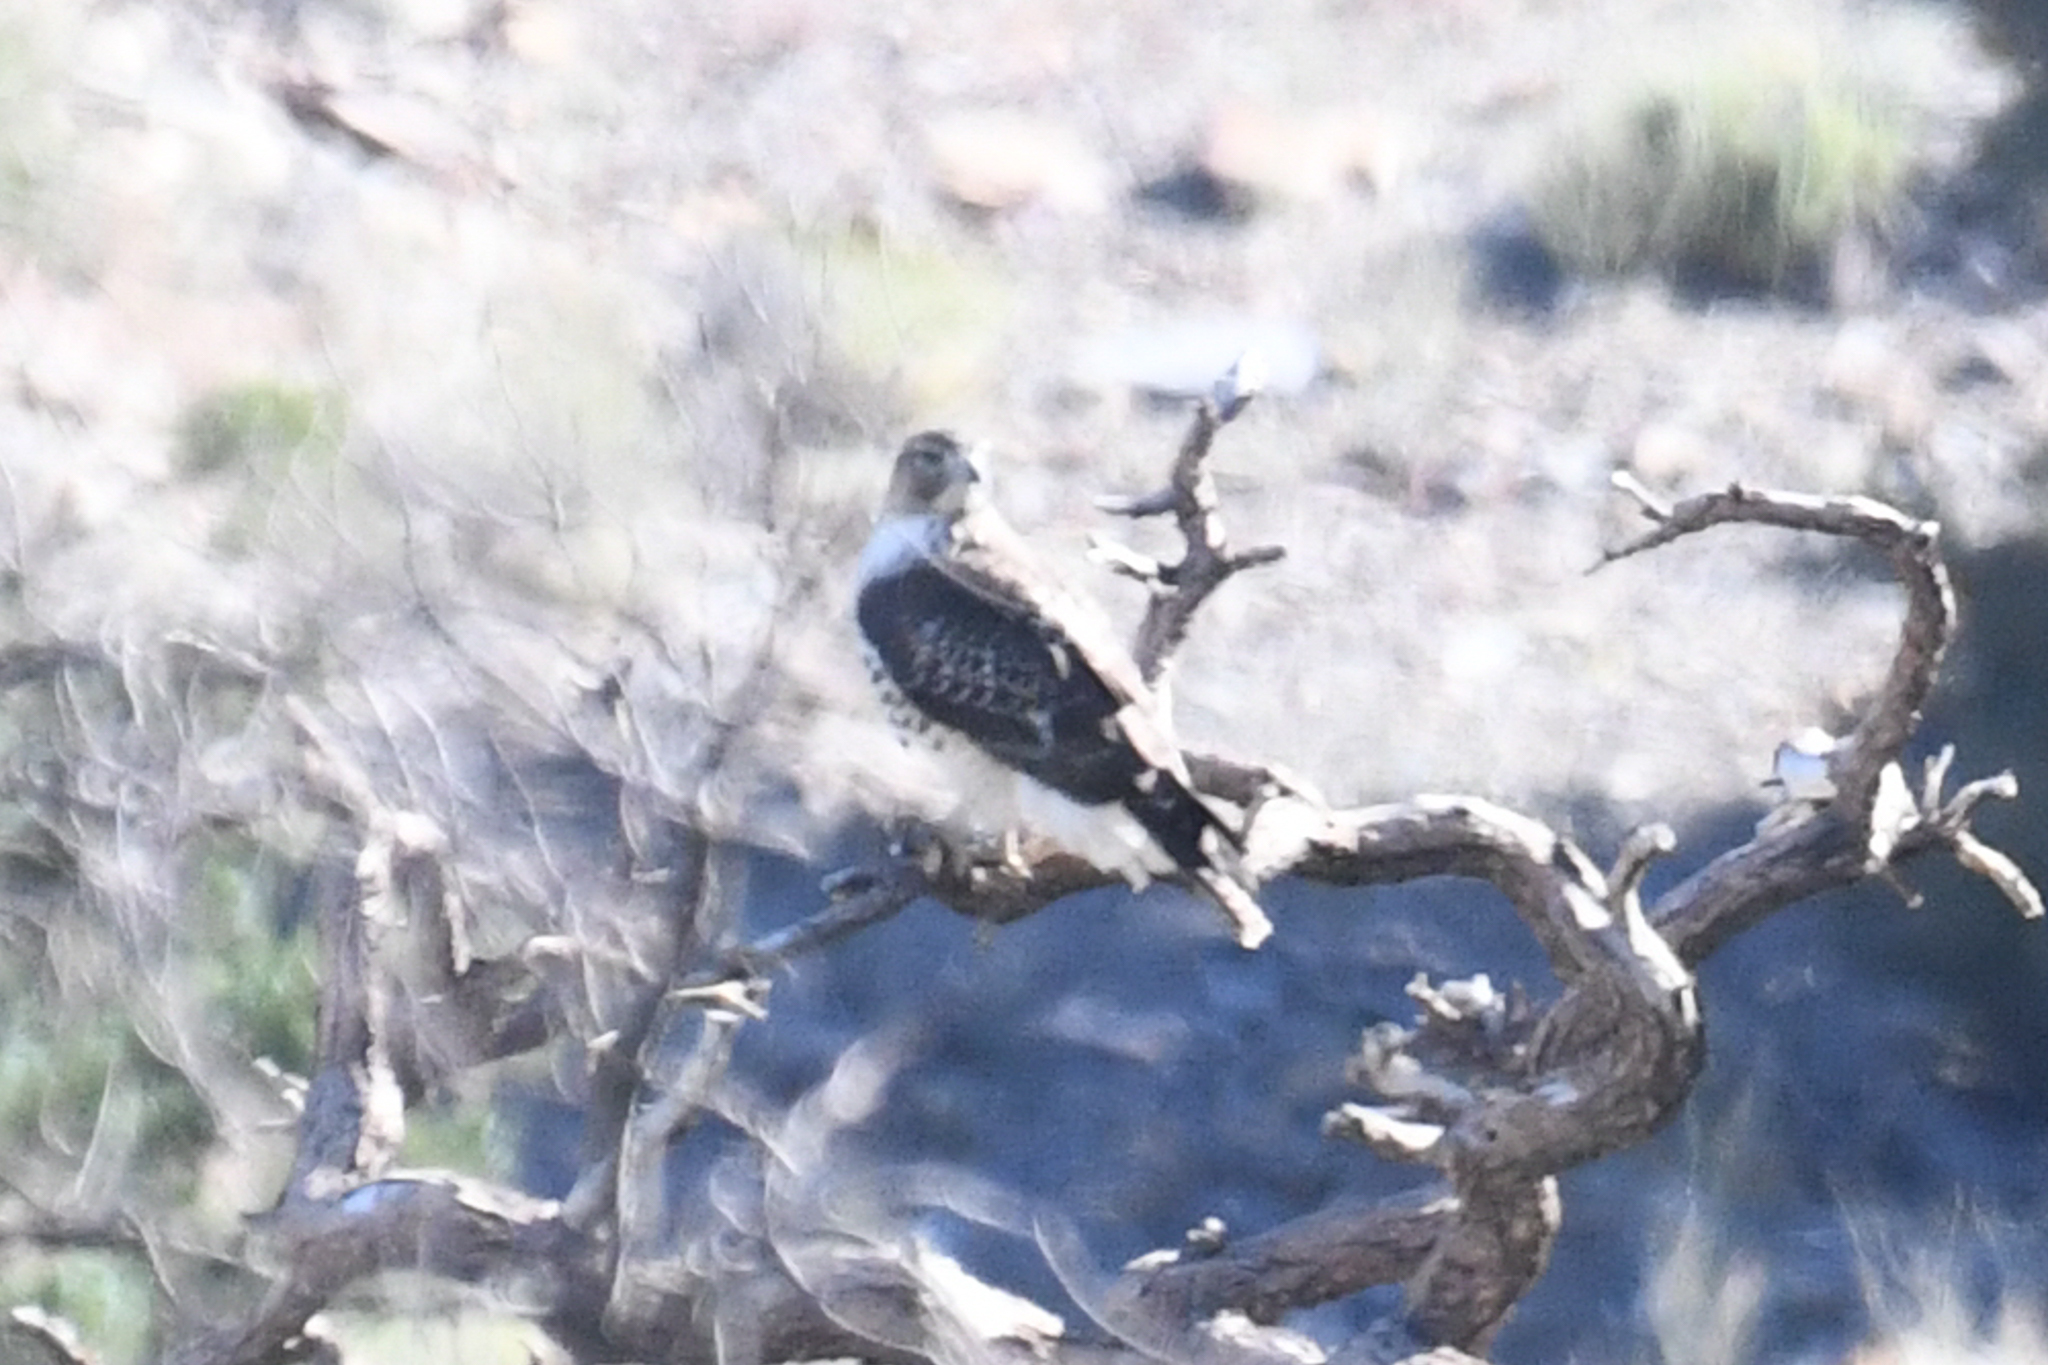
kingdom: Animalia
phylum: Chordata
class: Aves
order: Accipitriformes
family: Accipitridae
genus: Buteo
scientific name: Buteo jamaicensis
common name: Red-tailed hawk
